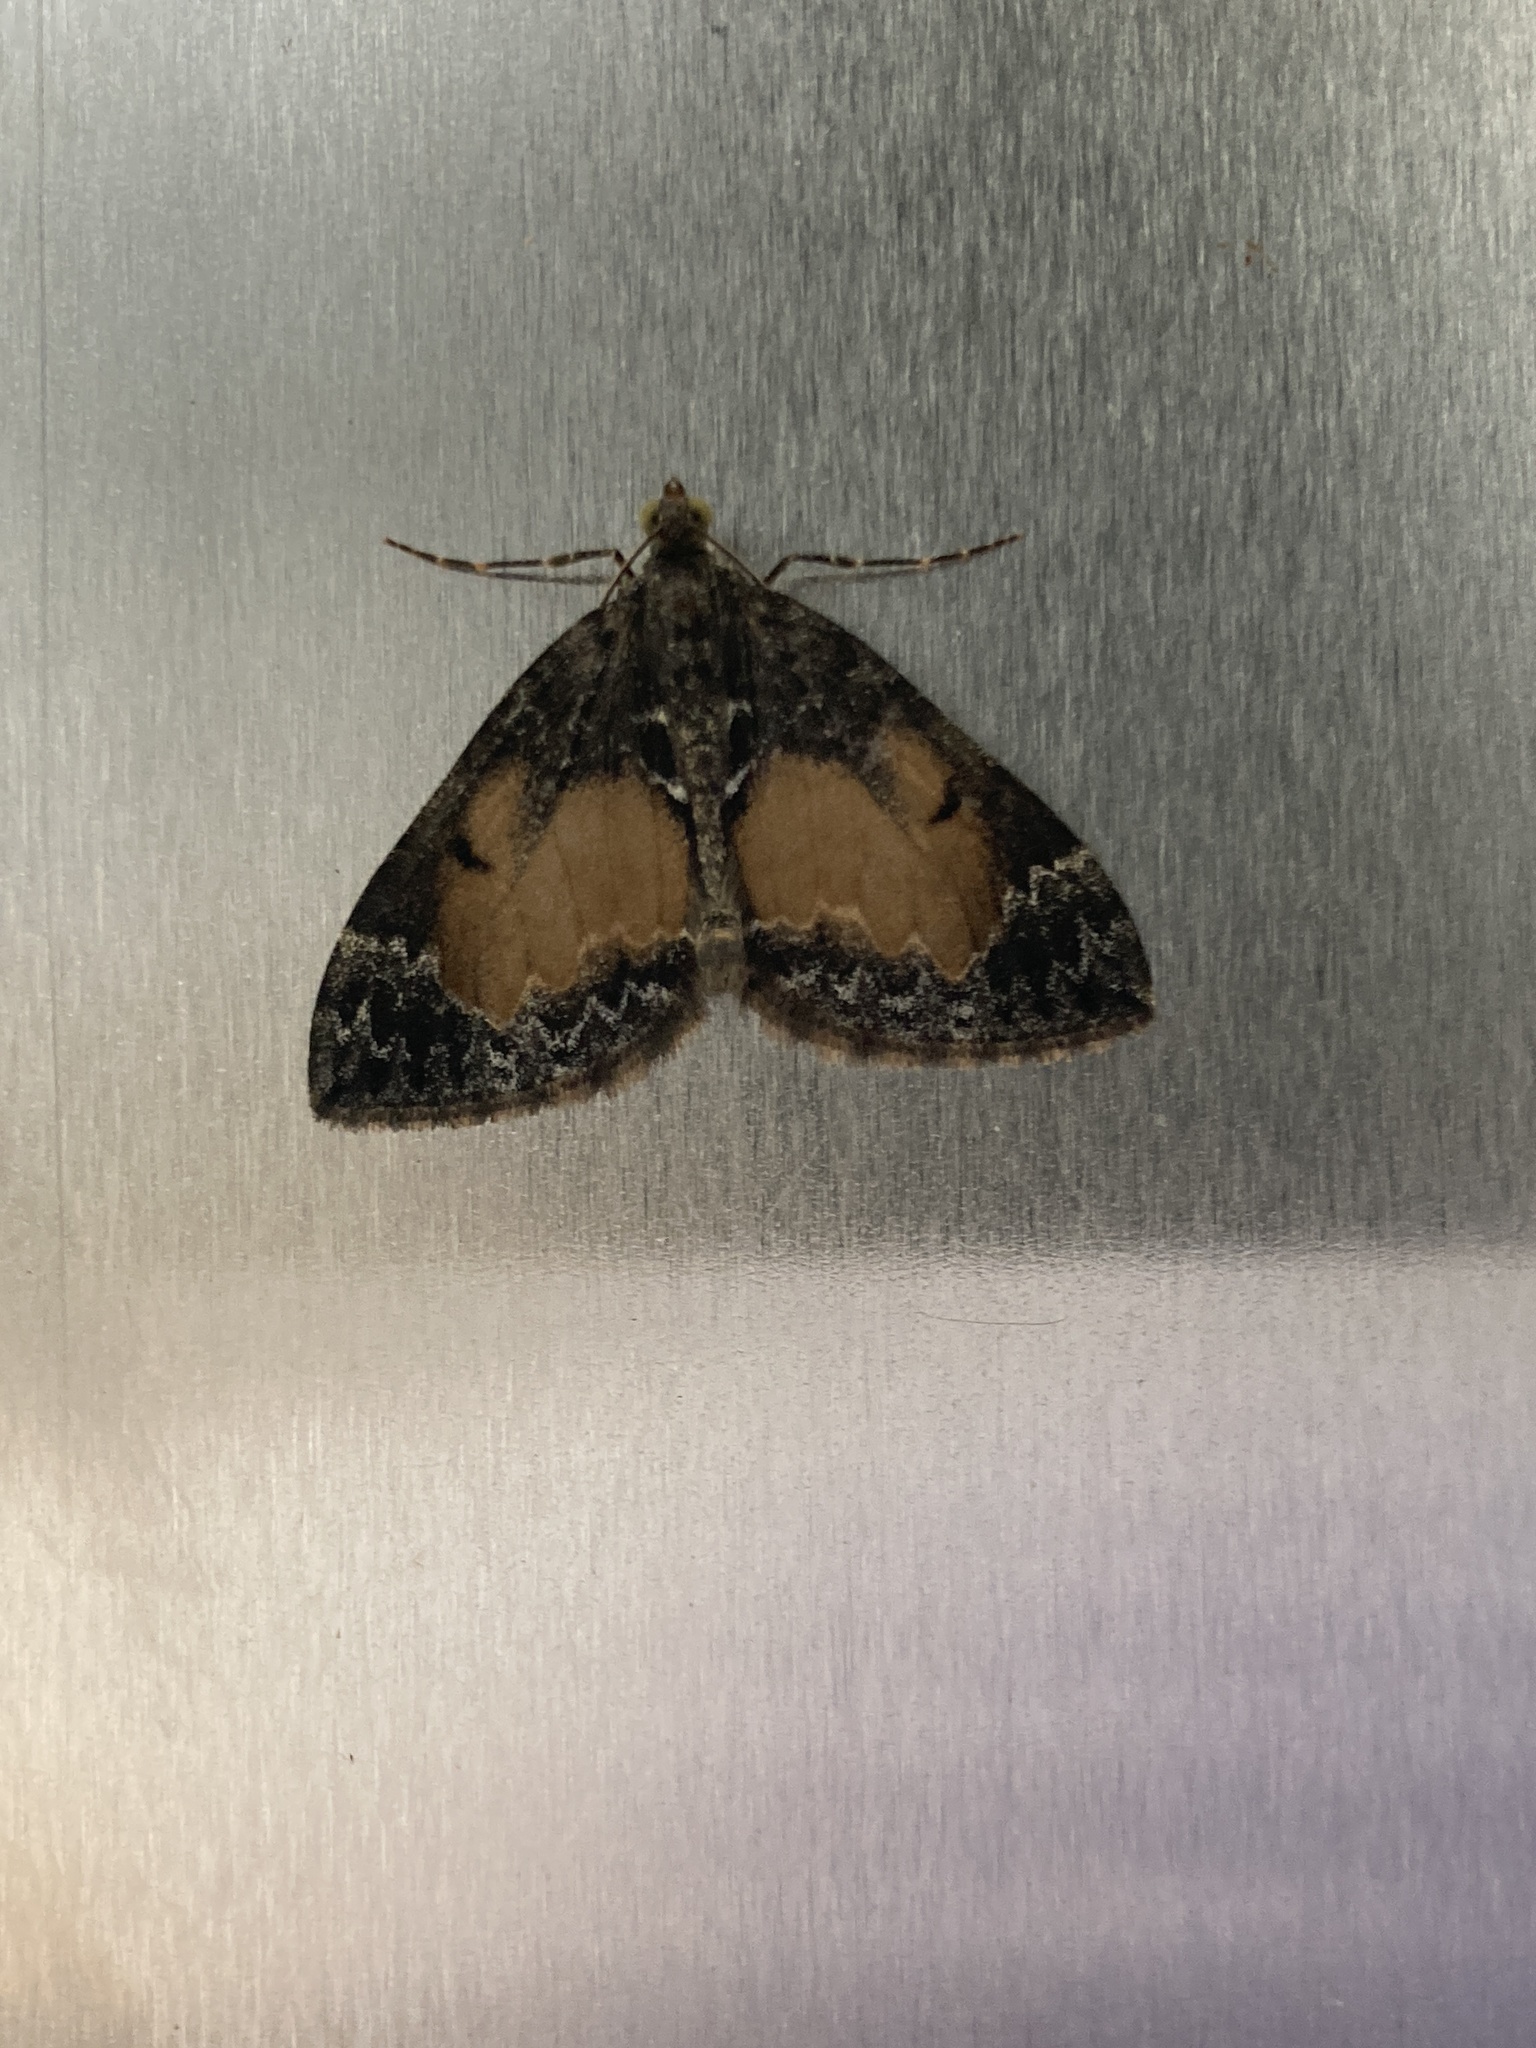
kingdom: Animalia
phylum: Arthropoda
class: Insecta
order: Lepidoptera
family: Geometridae
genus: Dysstroma
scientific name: Dysstroma truncata
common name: Common marbled carpet
